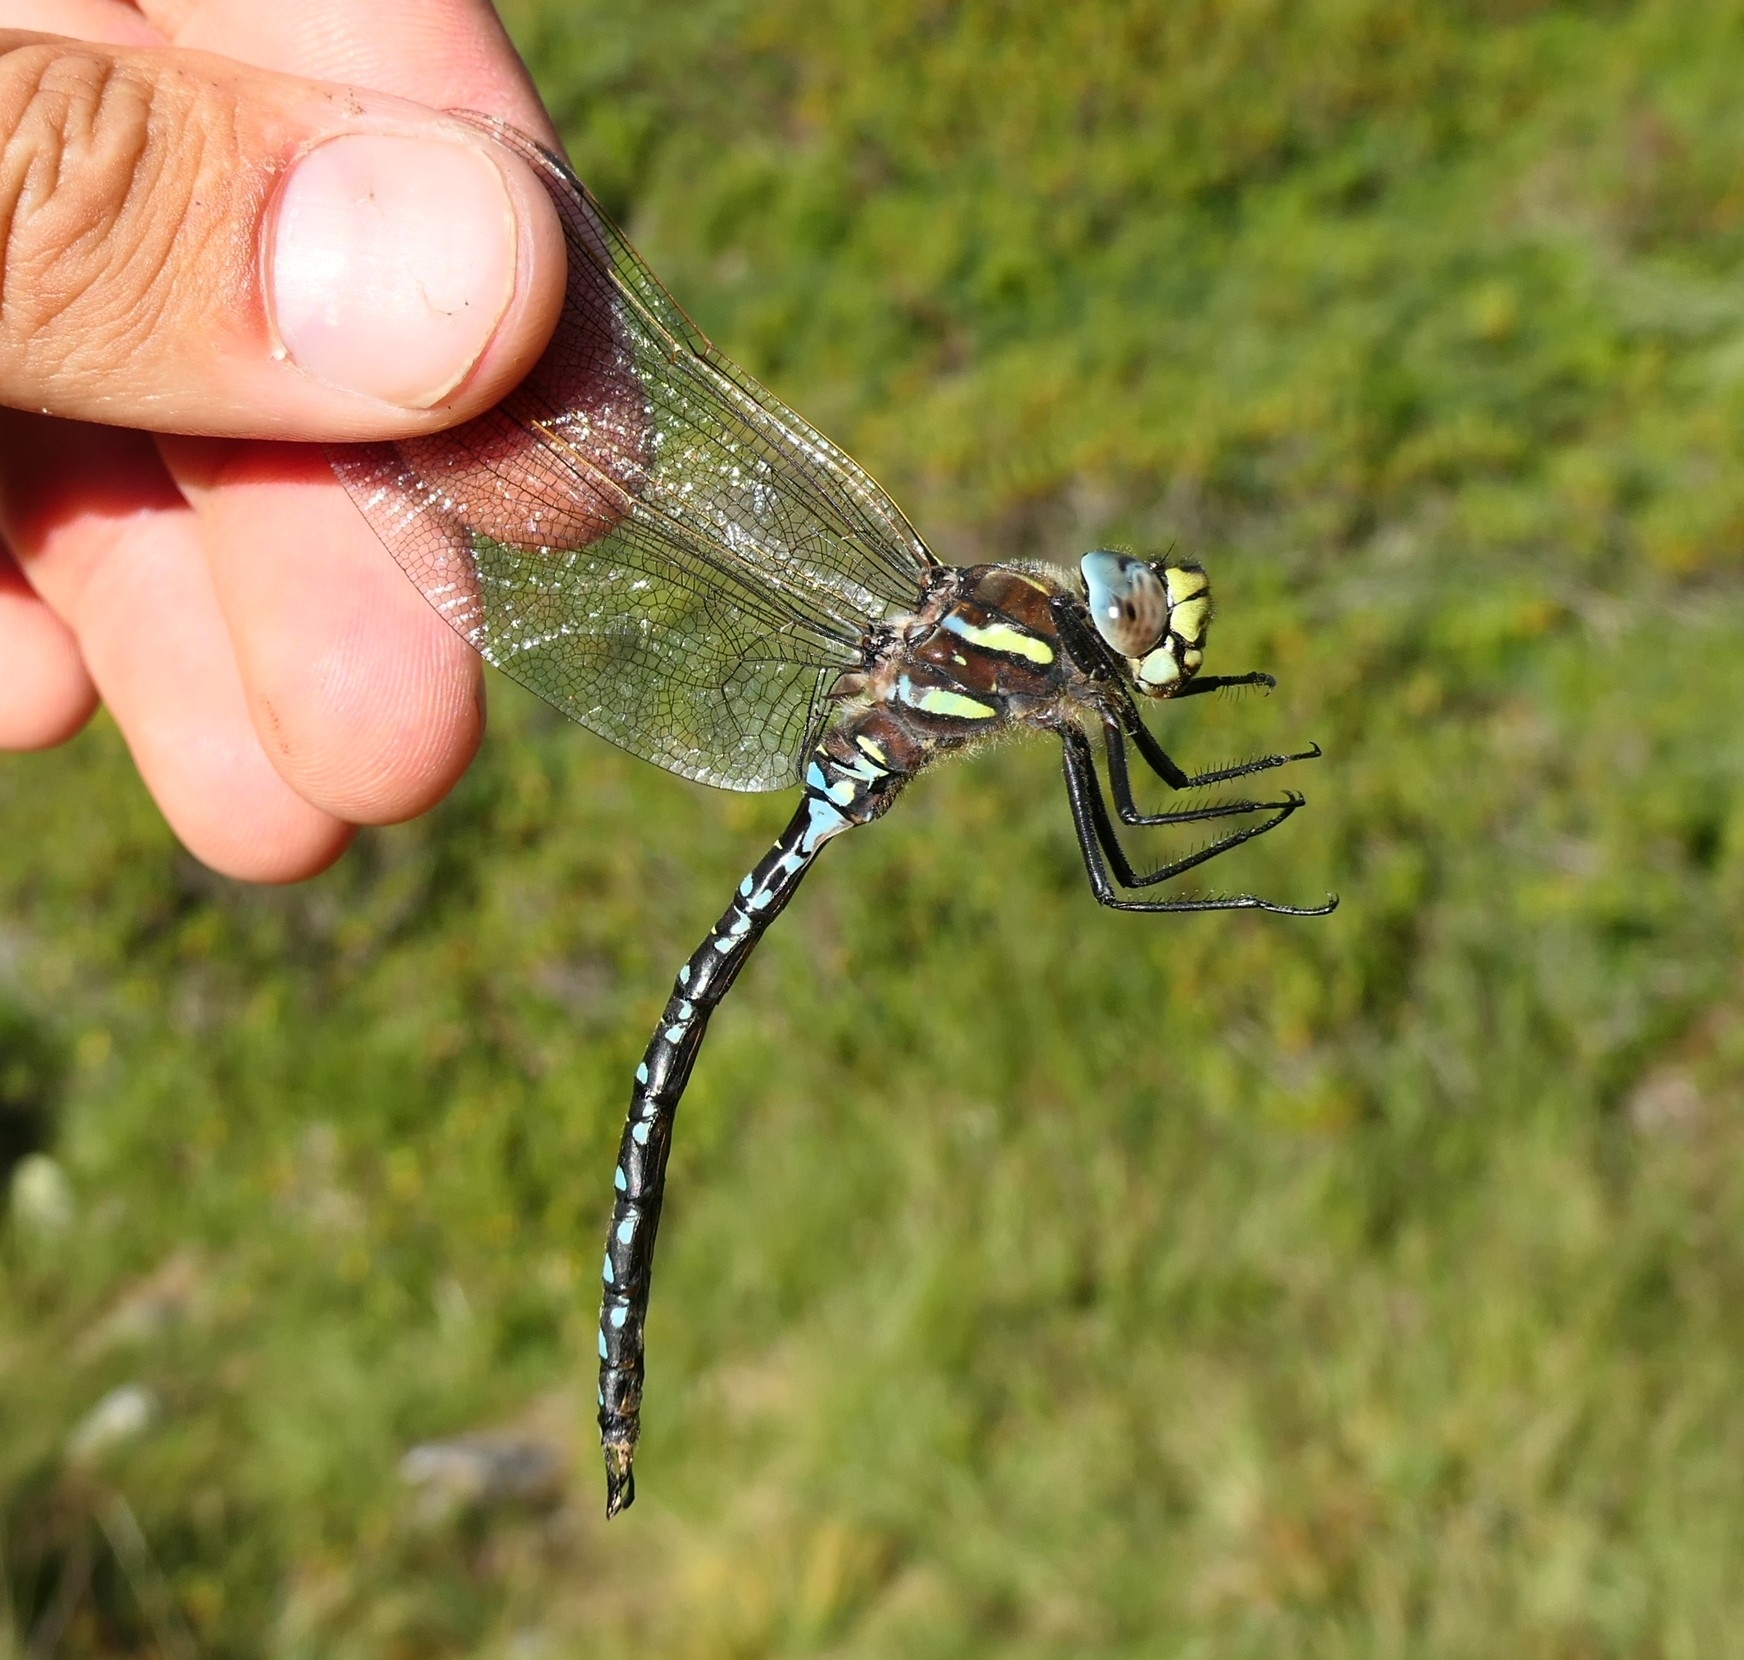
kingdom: Animalia
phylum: Arthropoda
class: Insecta
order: Odonata
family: Aeshnidae
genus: Aeshna
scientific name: Aeshna juncea
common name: Moorland hawker
